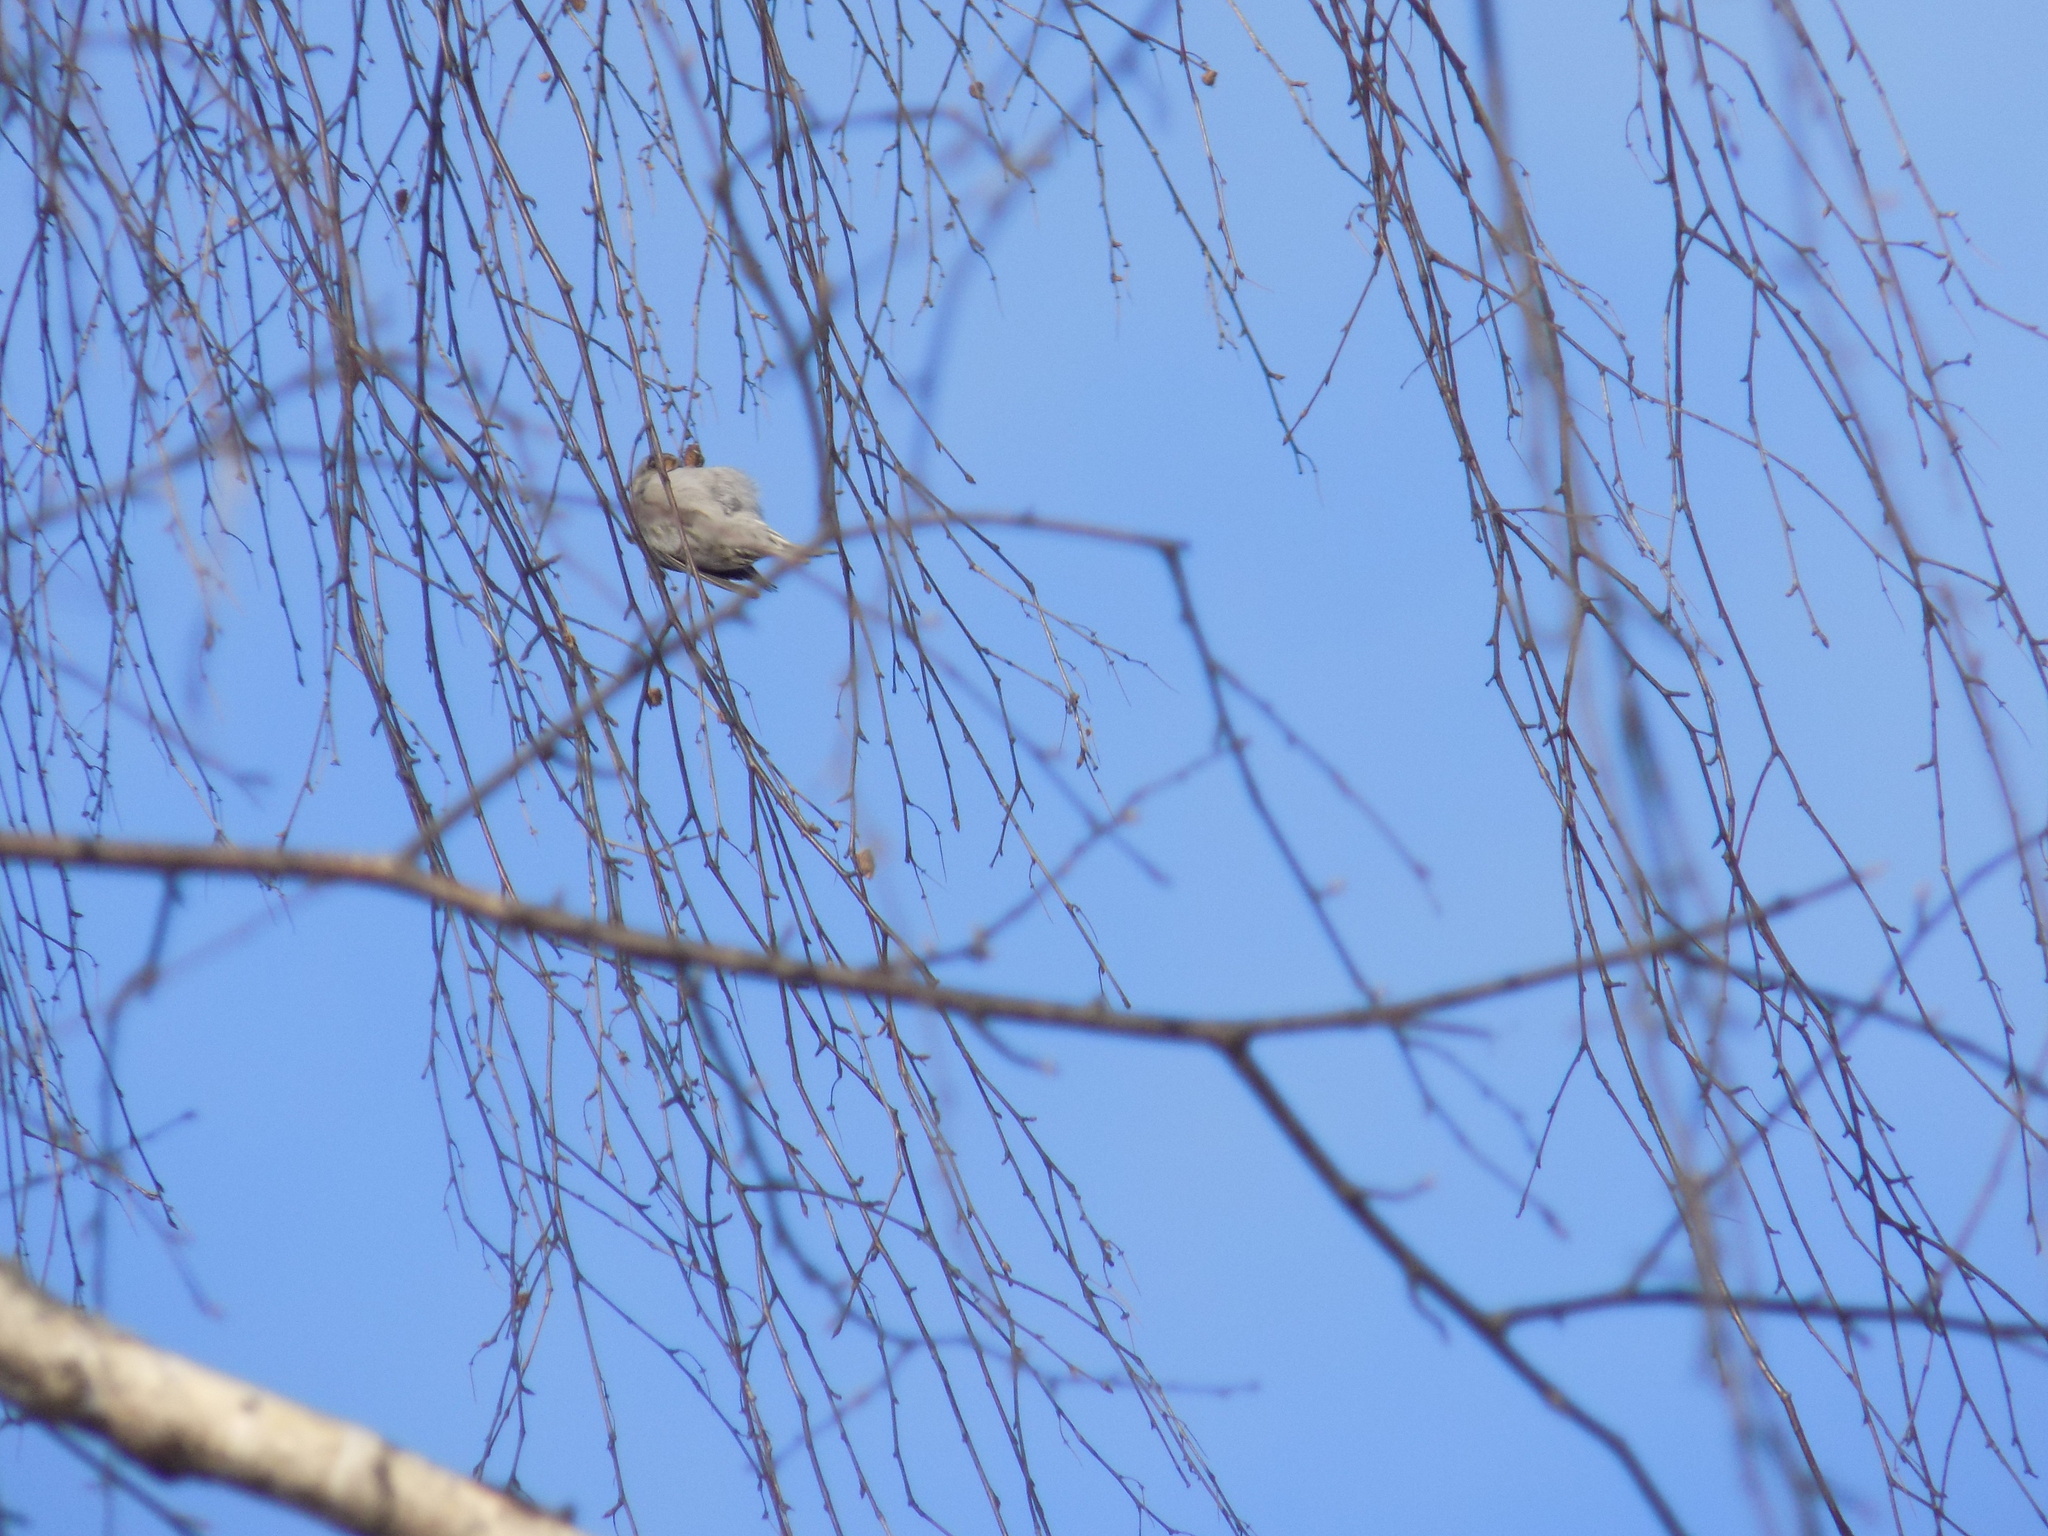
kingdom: Animalia
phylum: Chordata
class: Aves
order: Passeriformes
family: Fringillidae
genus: Acanthis
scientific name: Acanthis flammea
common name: Common redpoll
